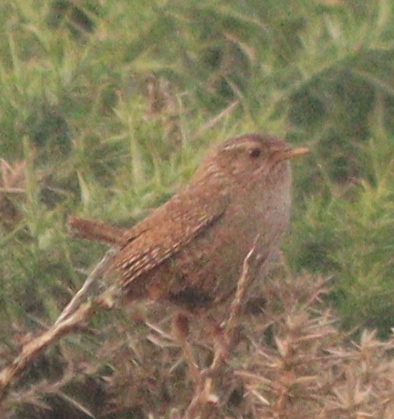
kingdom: Animalia
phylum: Chordata
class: Aves
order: Passeriformes
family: Troglodytidae
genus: Troglodytes
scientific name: Troglodytes troglodytes
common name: Eurasian wren
